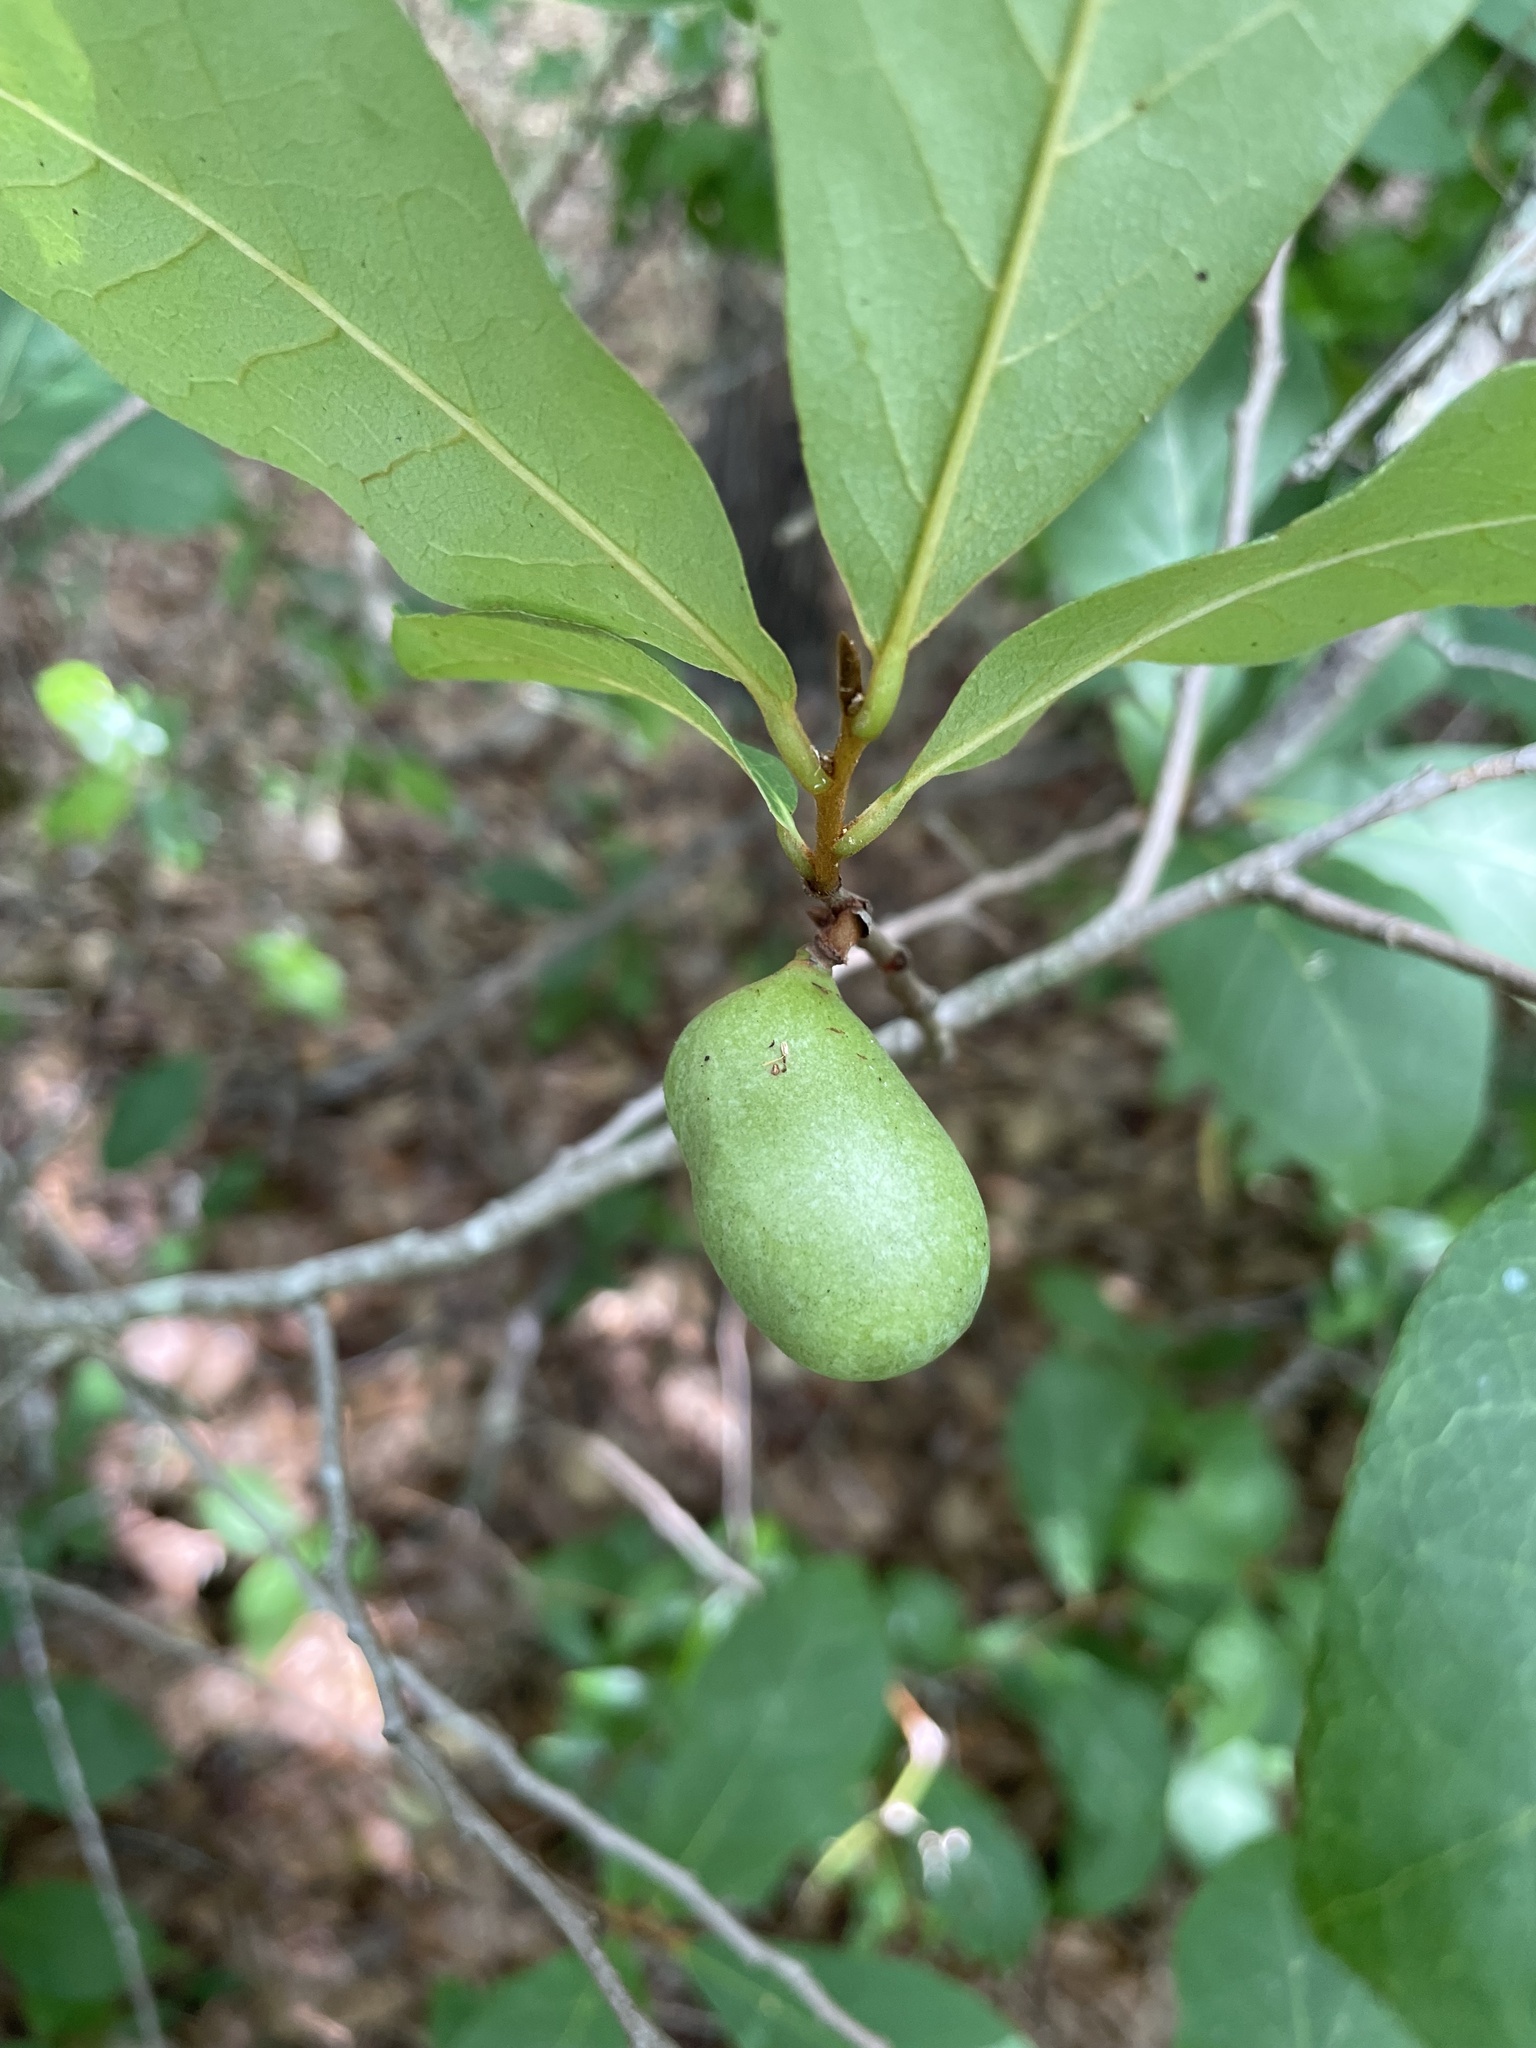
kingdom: Plantae
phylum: Tracheophyta
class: Magnoliopsida
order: Magnoliales
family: Annonaceae
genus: Asimina
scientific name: Asimina parviflora
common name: Dwarf pawpaw
